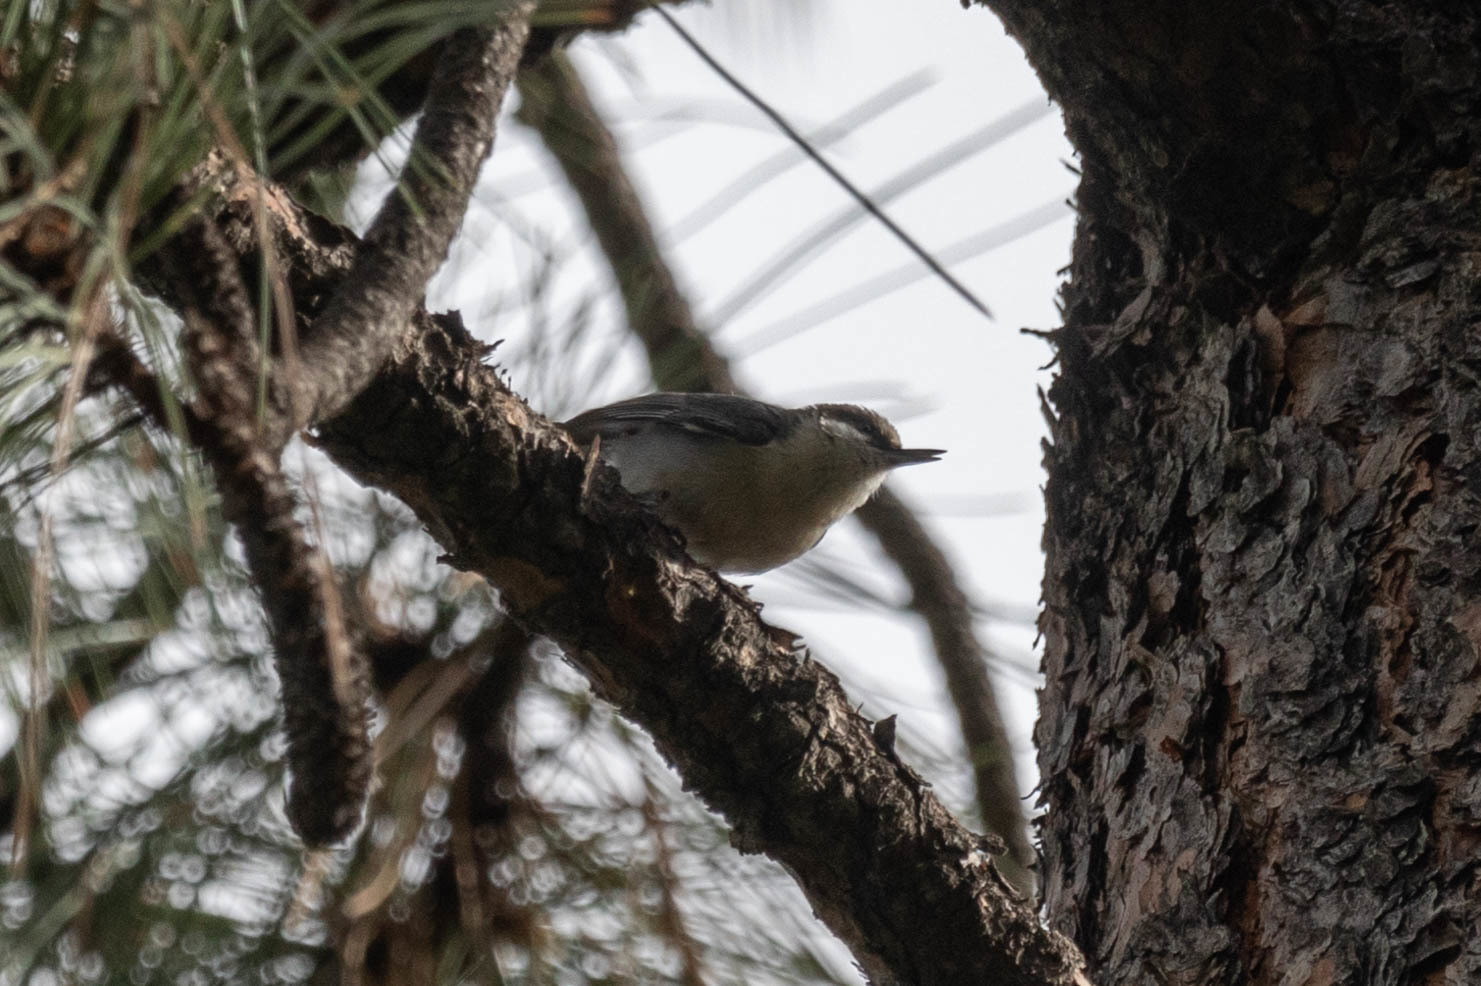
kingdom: Animalia
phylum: Chordata
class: Aves
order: Passeriformes
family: Sittidae
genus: Sitta
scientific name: Sitta pygmaea
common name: Pygmy nuthatch
